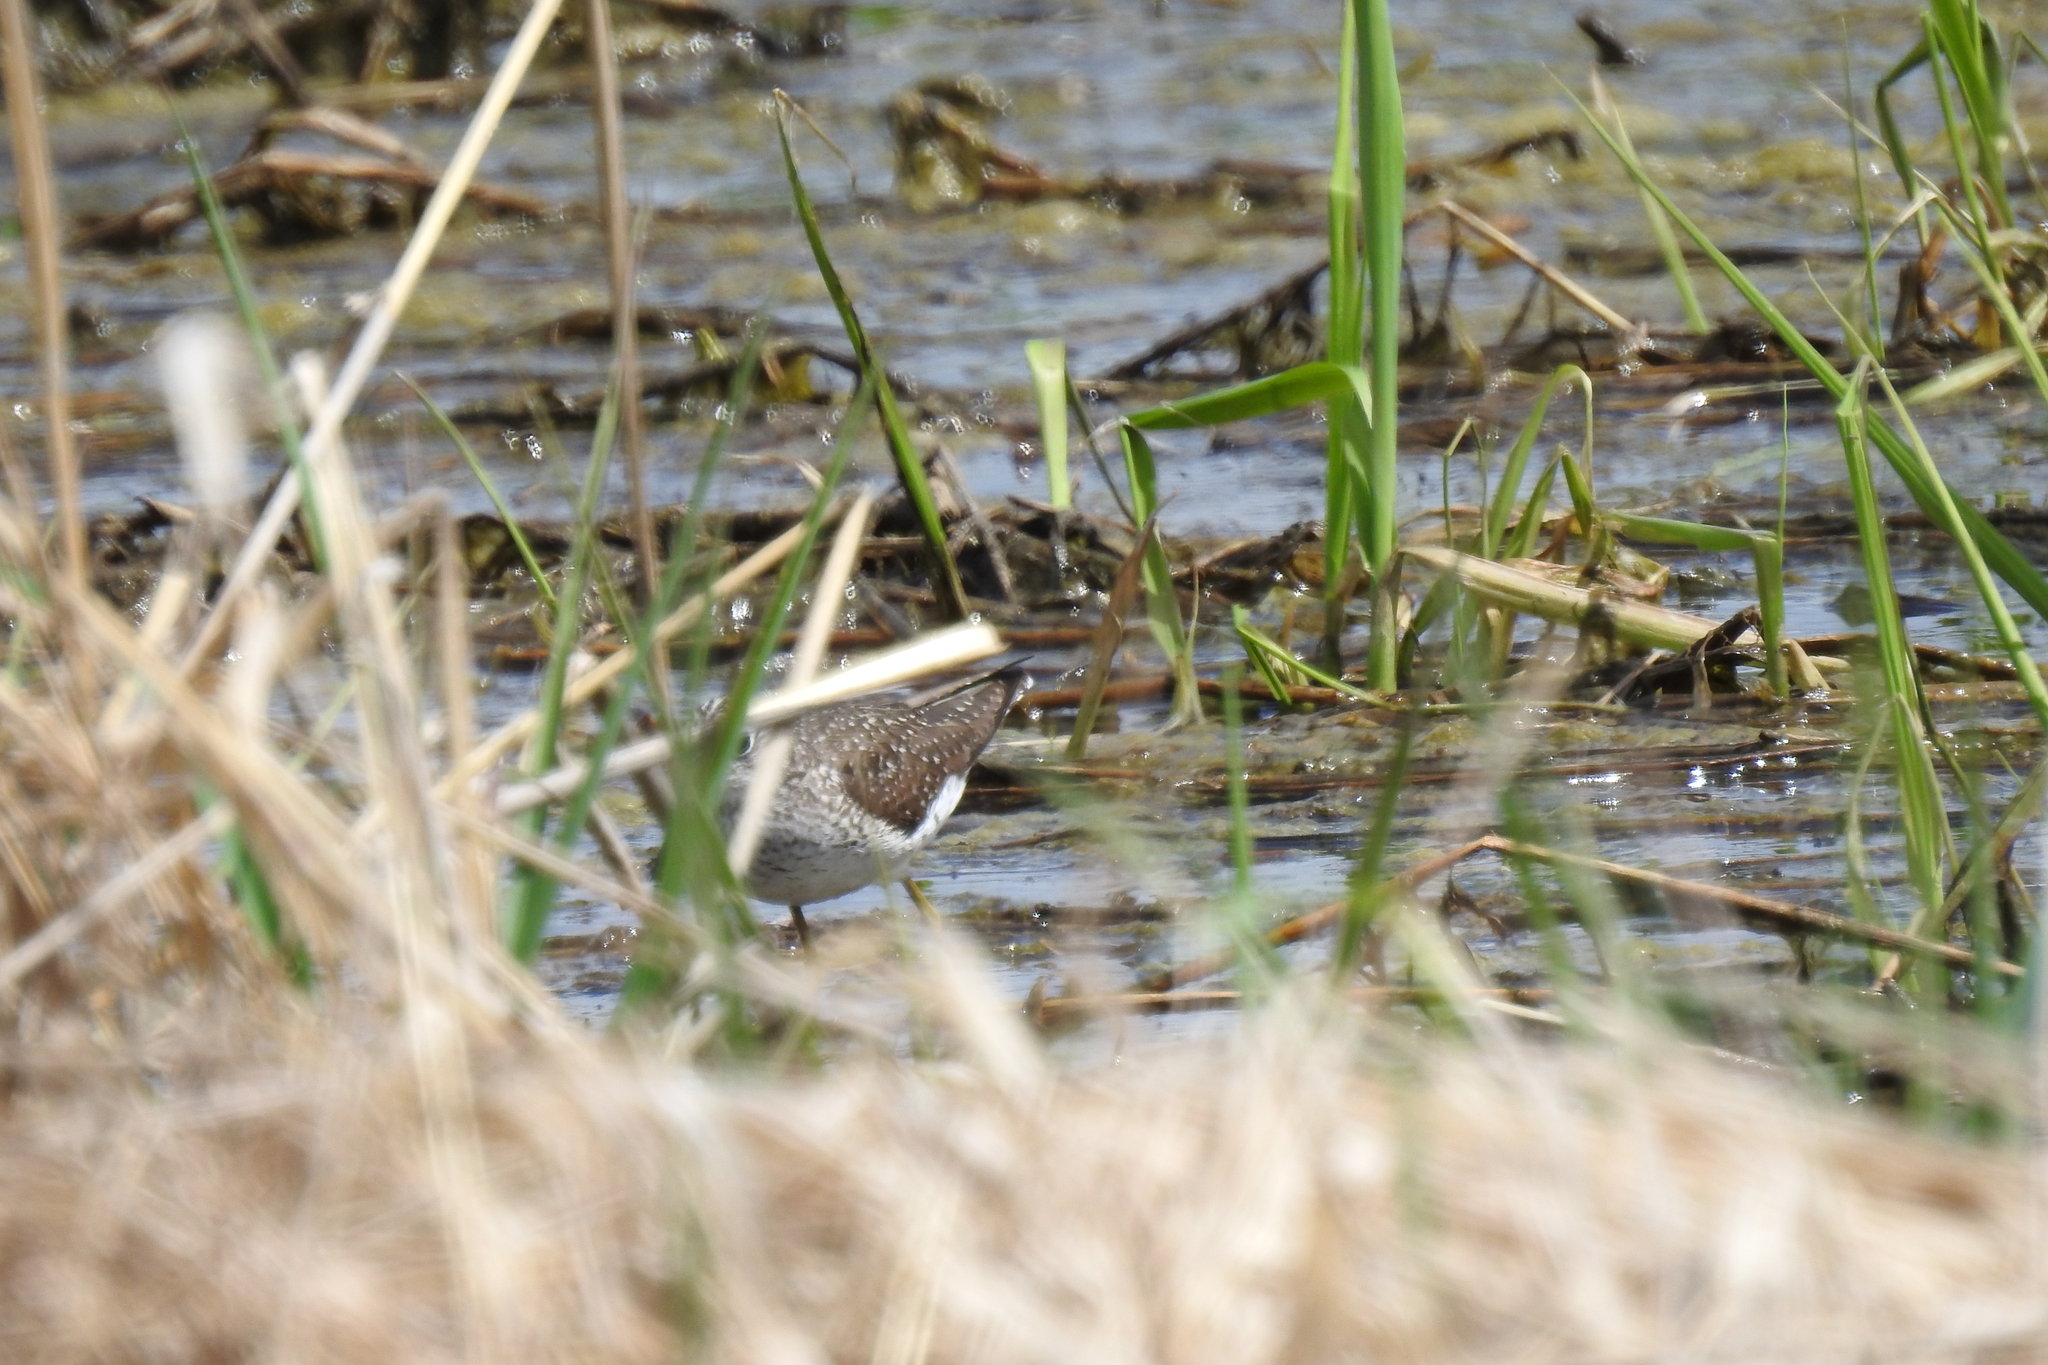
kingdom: Animalia
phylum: Chordata
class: Aves
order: Charadriiformes
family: Scolopacidae
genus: Tringa
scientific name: Tringa solitaria
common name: Solitary sandpiper
